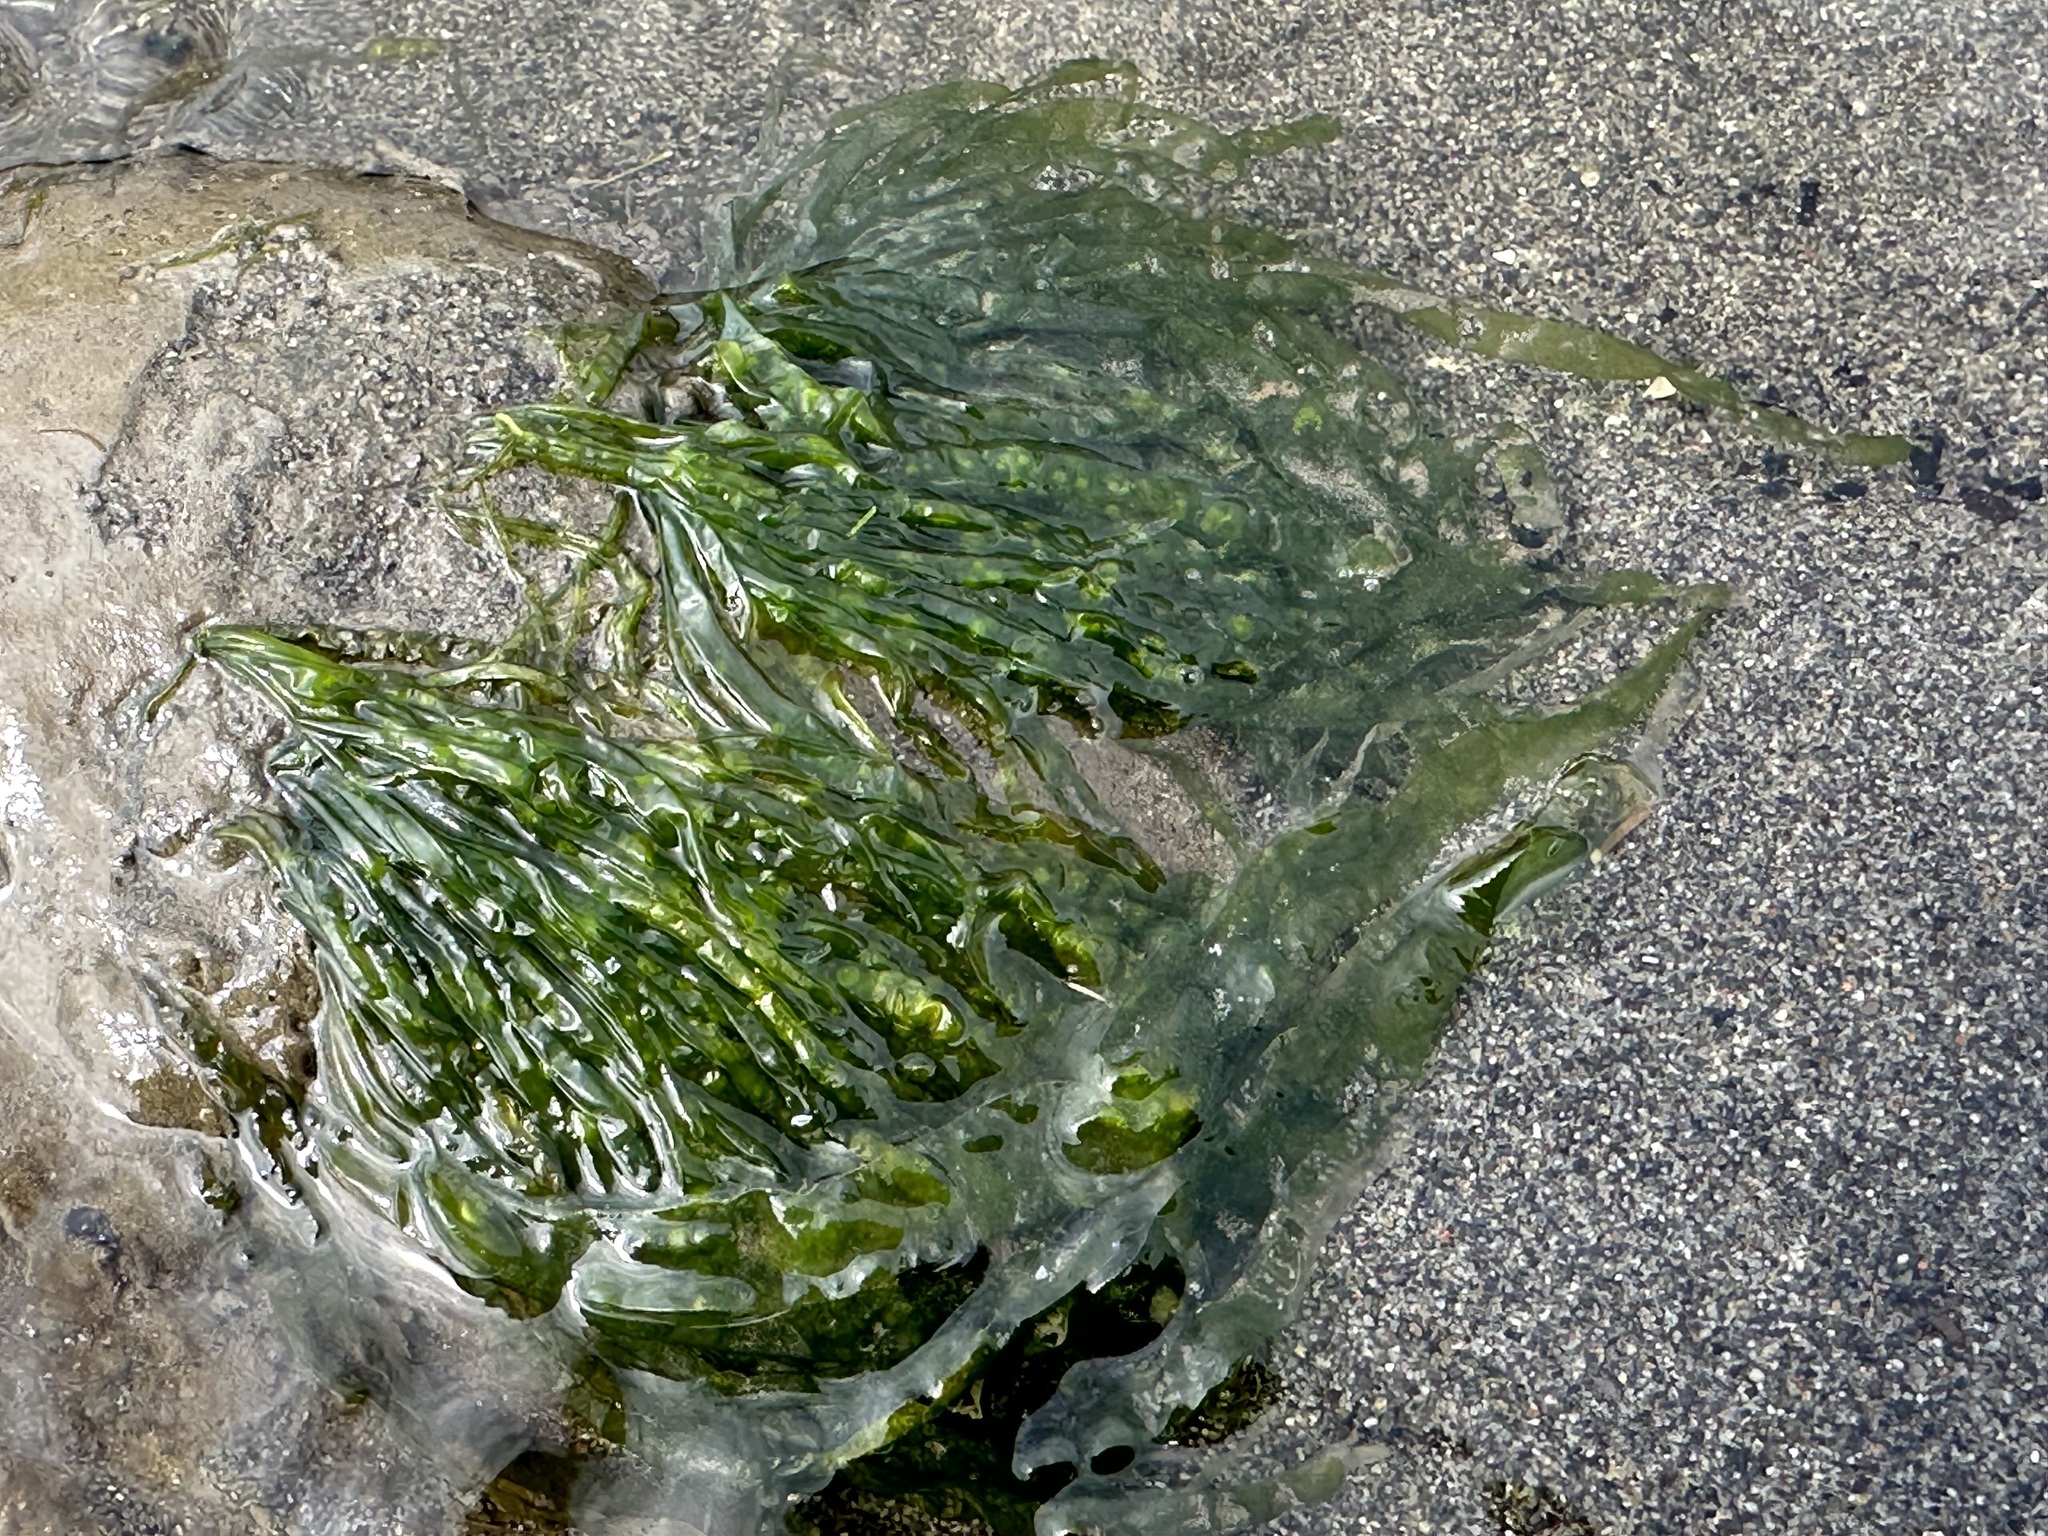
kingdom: Plantae
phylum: Chlorophyta
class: Ulvophyceae
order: Ulvales
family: Ulvaceae
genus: Ulva
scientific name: Ulva intestinalis
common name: Gut weed
